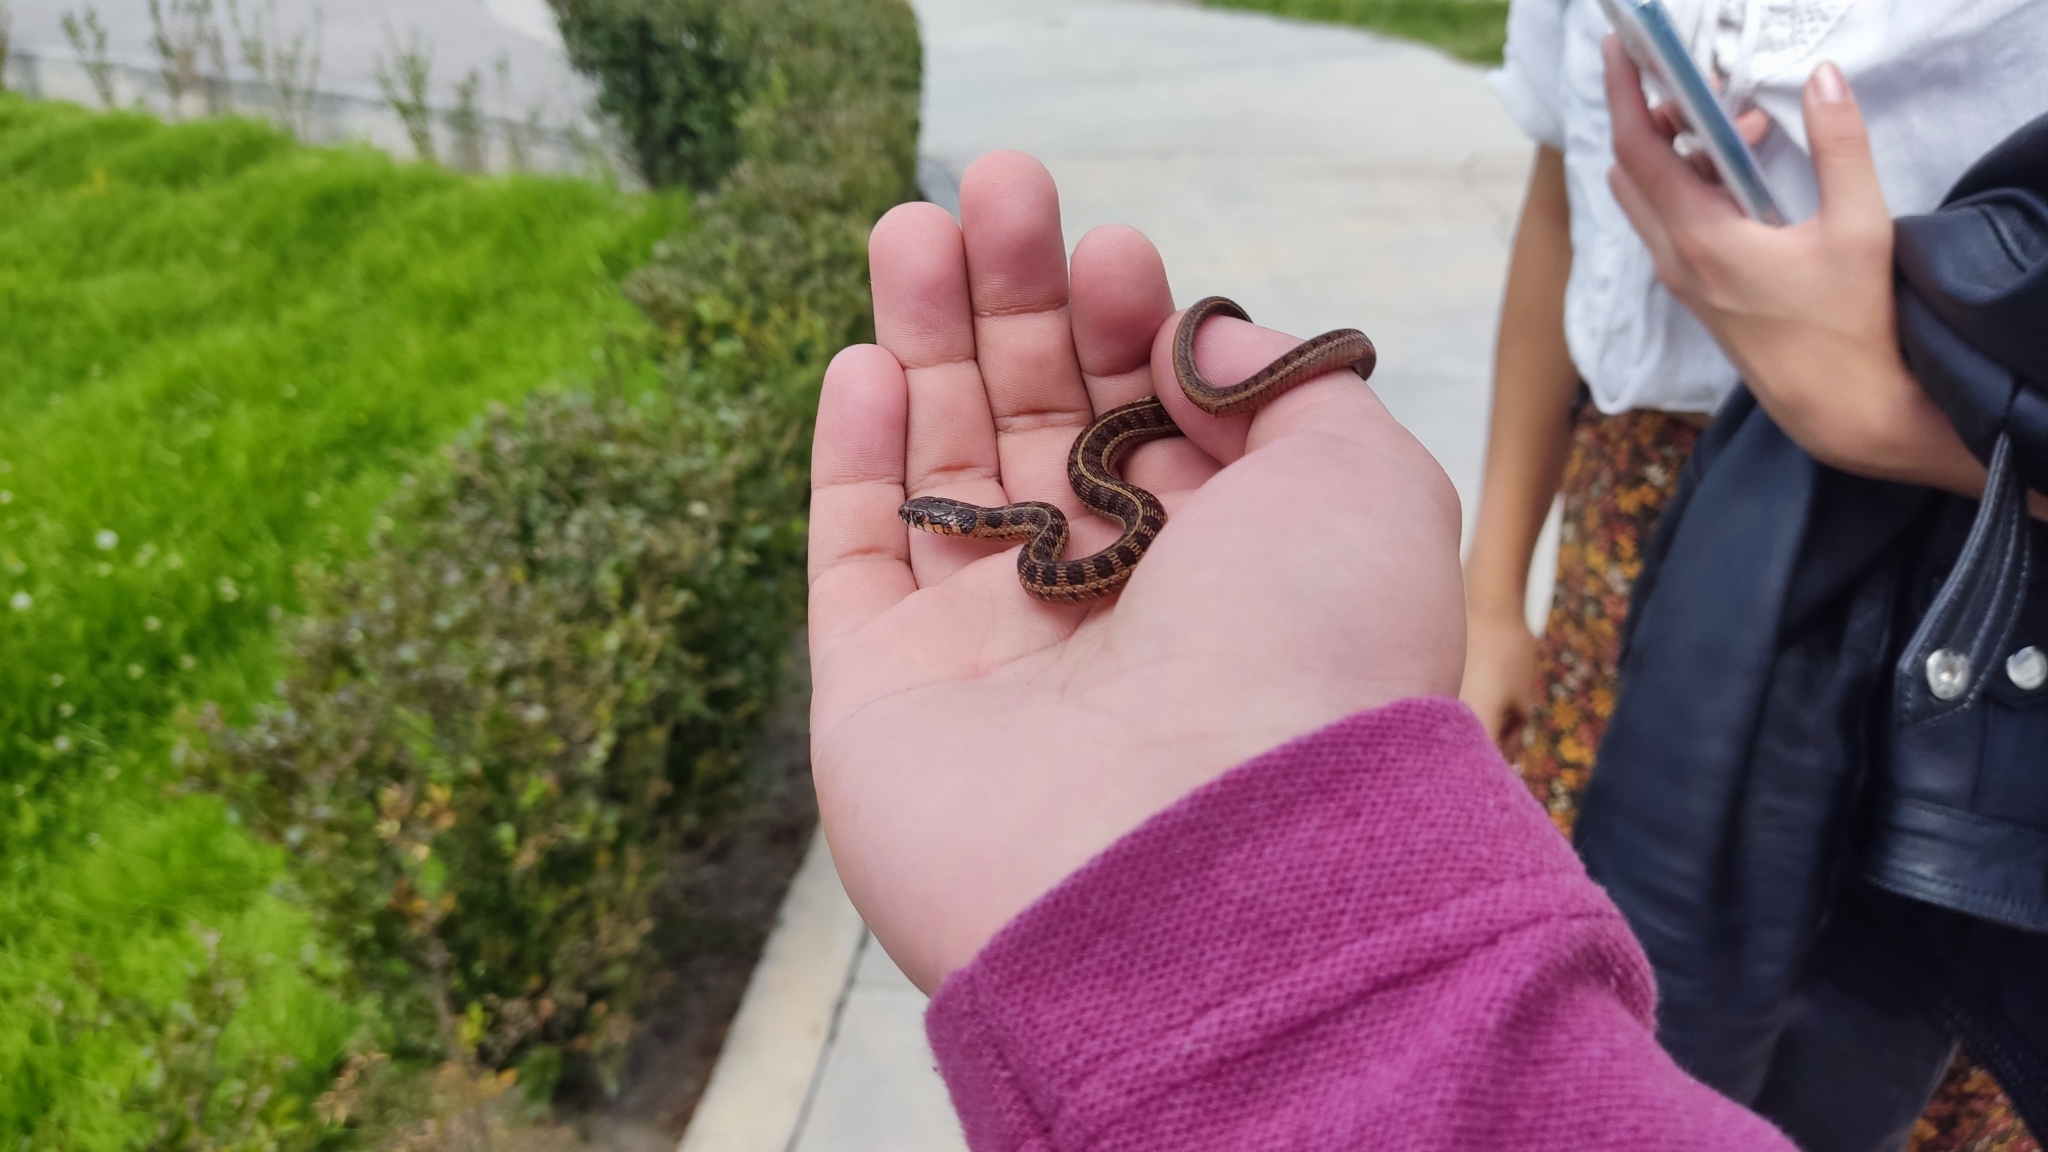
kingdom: Animalia
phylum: Chordata
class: Squamata
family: Colubridae
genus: Thamnophis
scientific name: Thamnophis scalaris
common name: Longtail alpine garter snake
